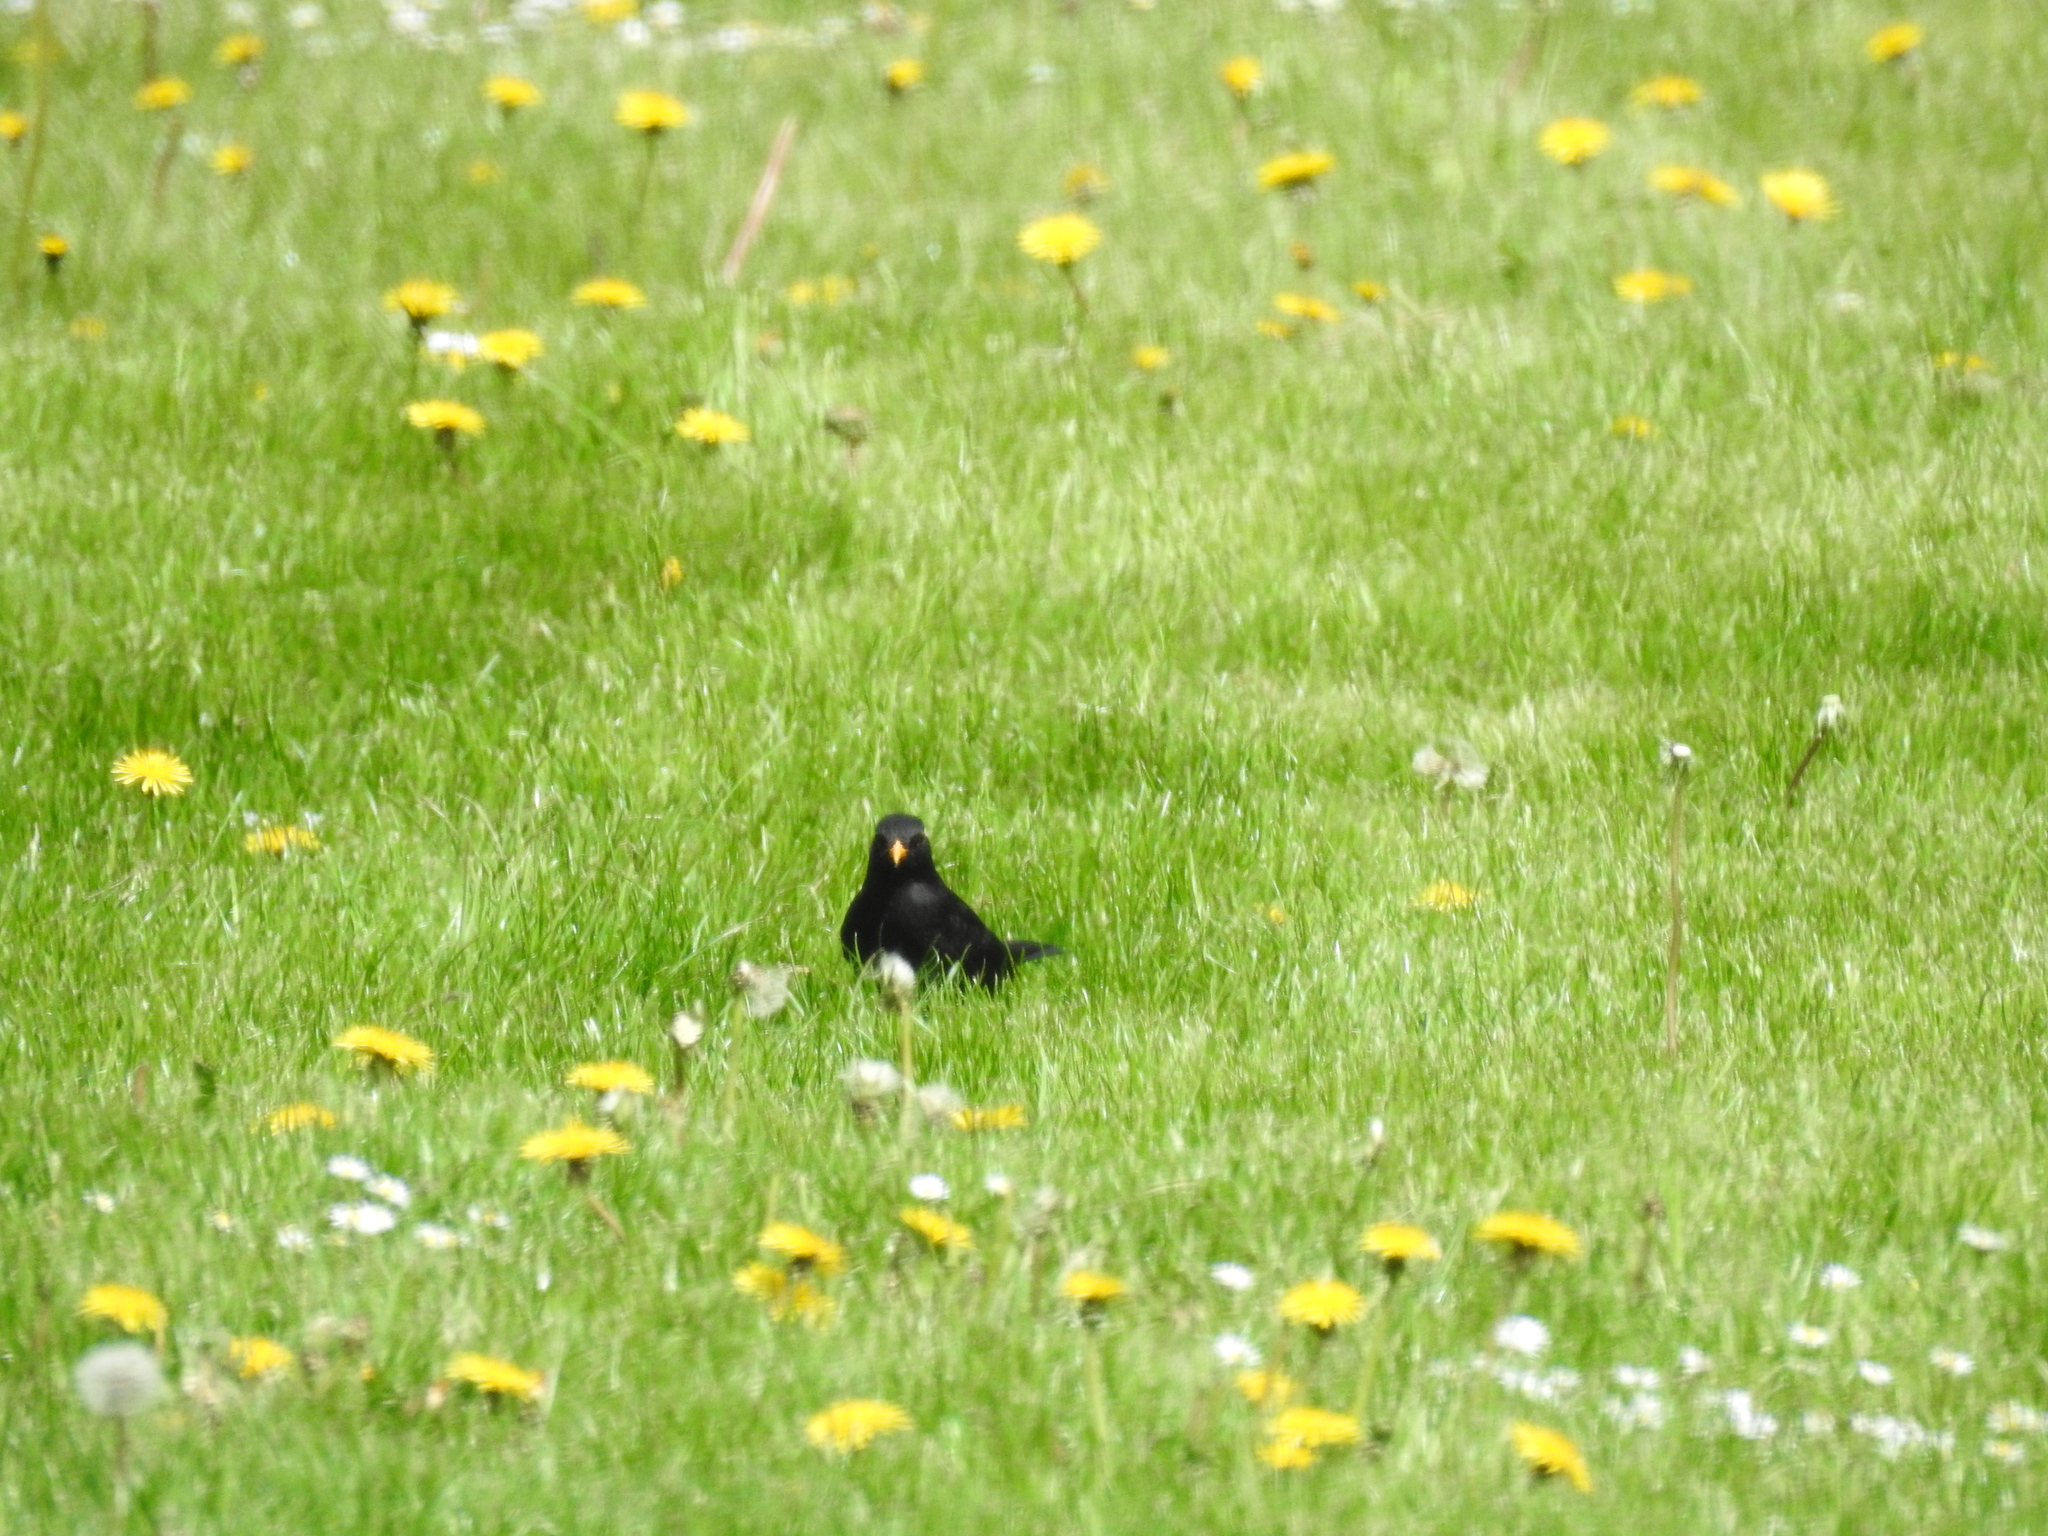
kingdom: Animalia
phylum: Chordata
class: Aves
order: Passeriformes
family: Turdidae
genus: Turdus
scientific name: Turdus merula
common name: Common blackbird
